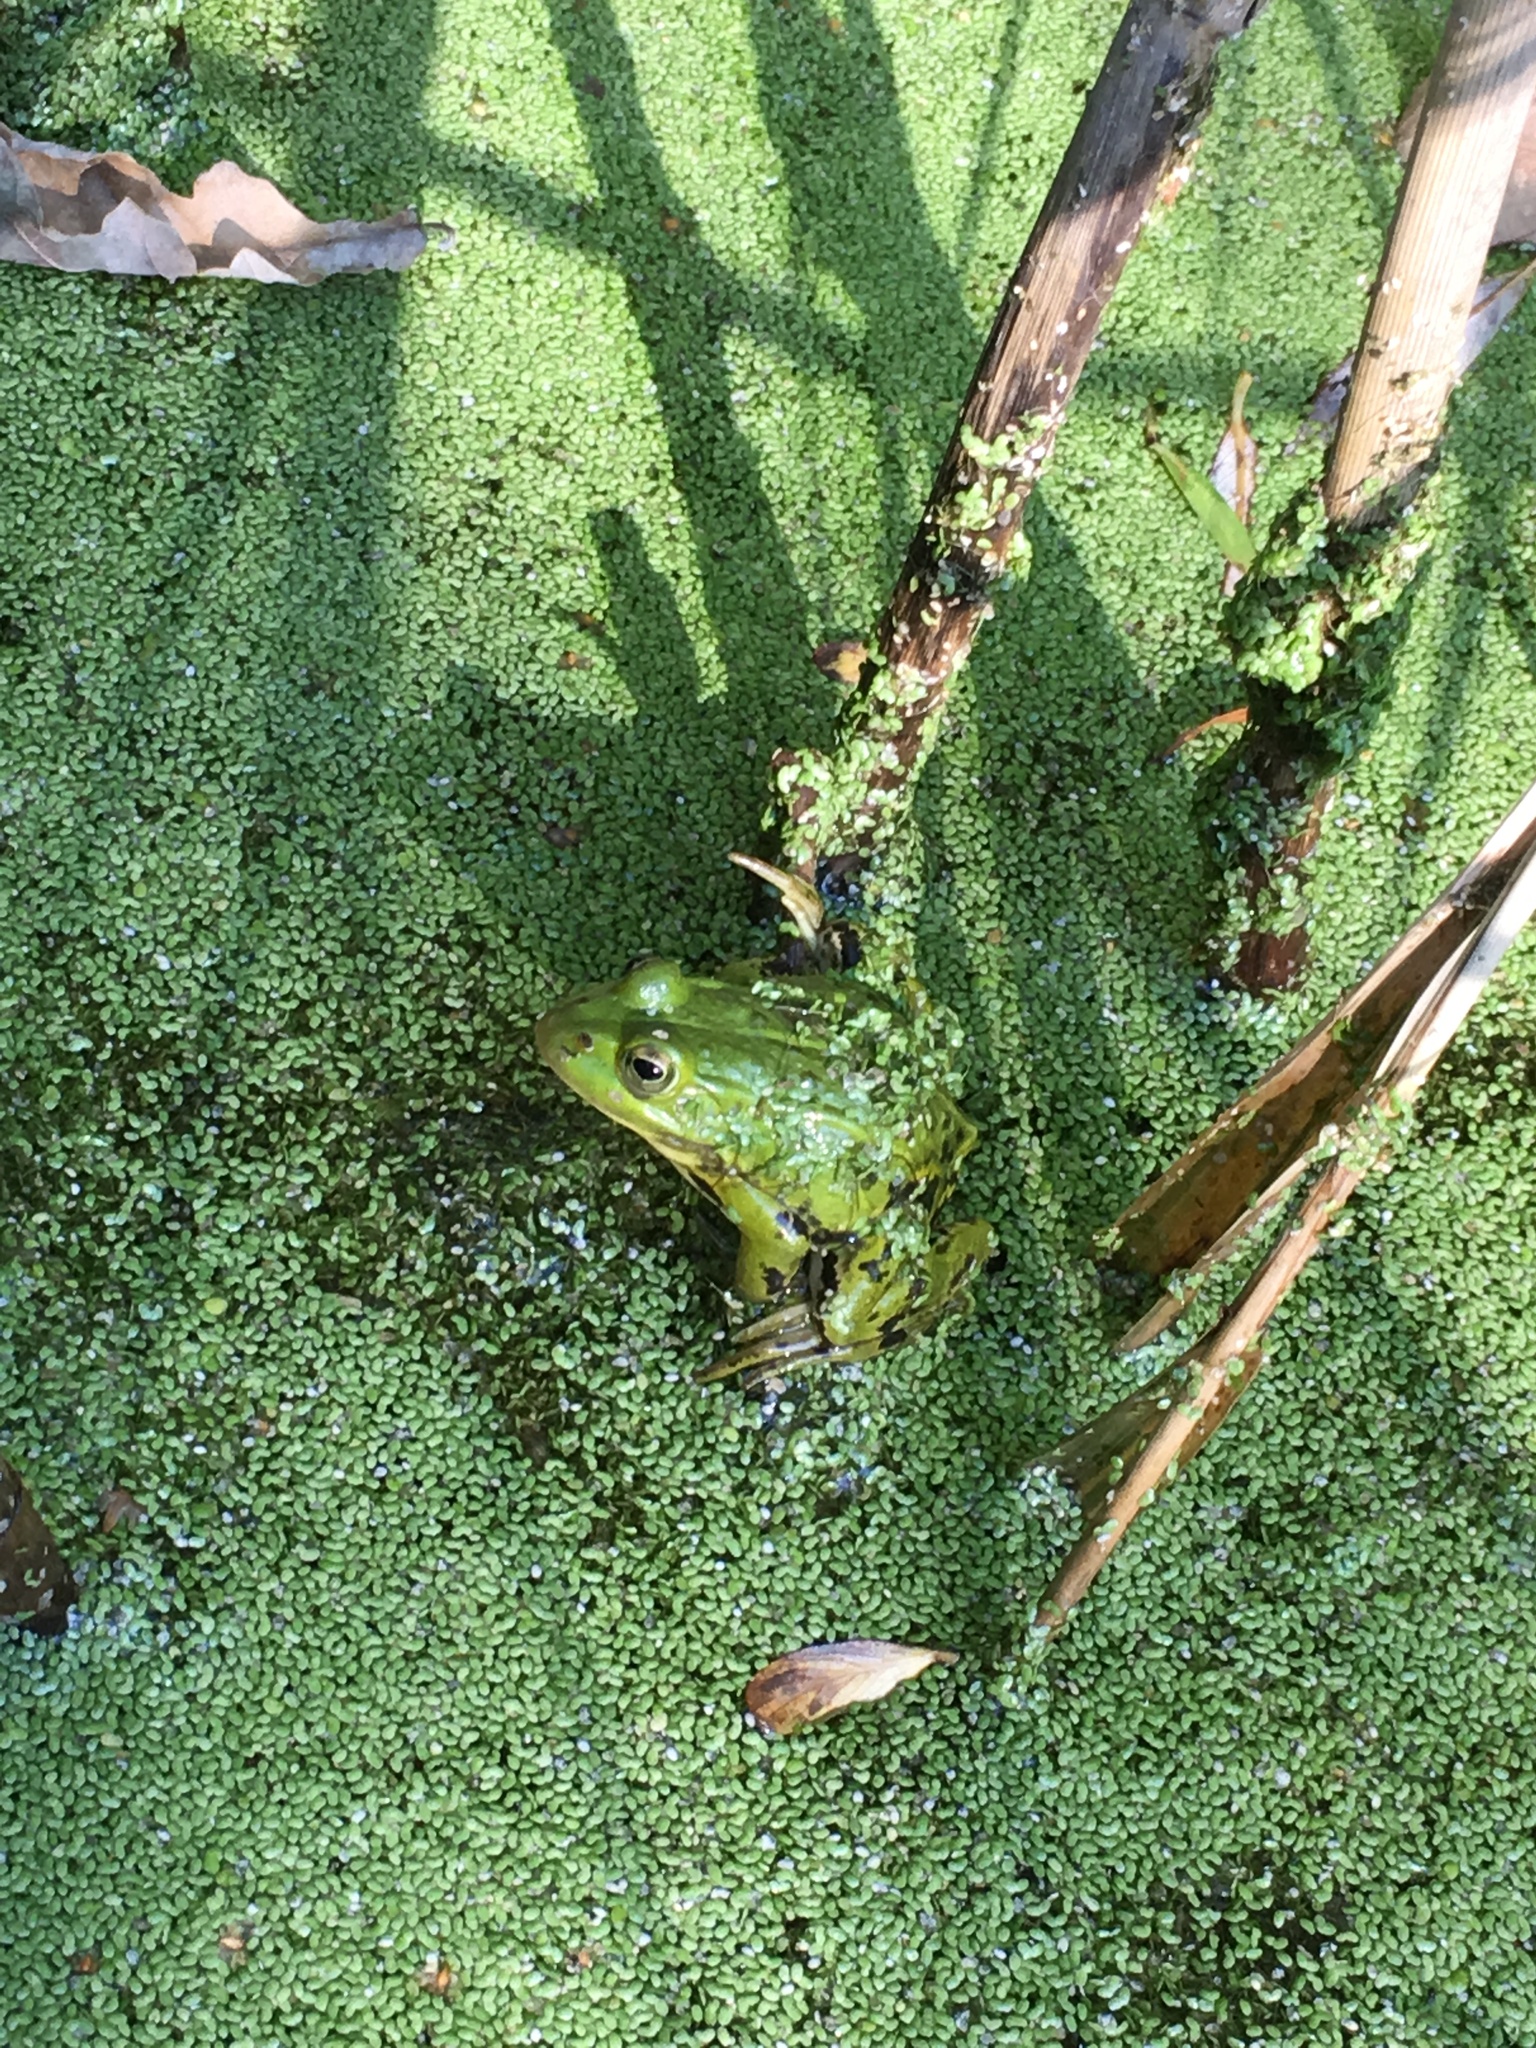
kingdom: Animalia
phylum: Chordata
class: Amphibia
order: Anura
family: Ranidae
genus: Pelophylax
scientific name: Pelophylax
